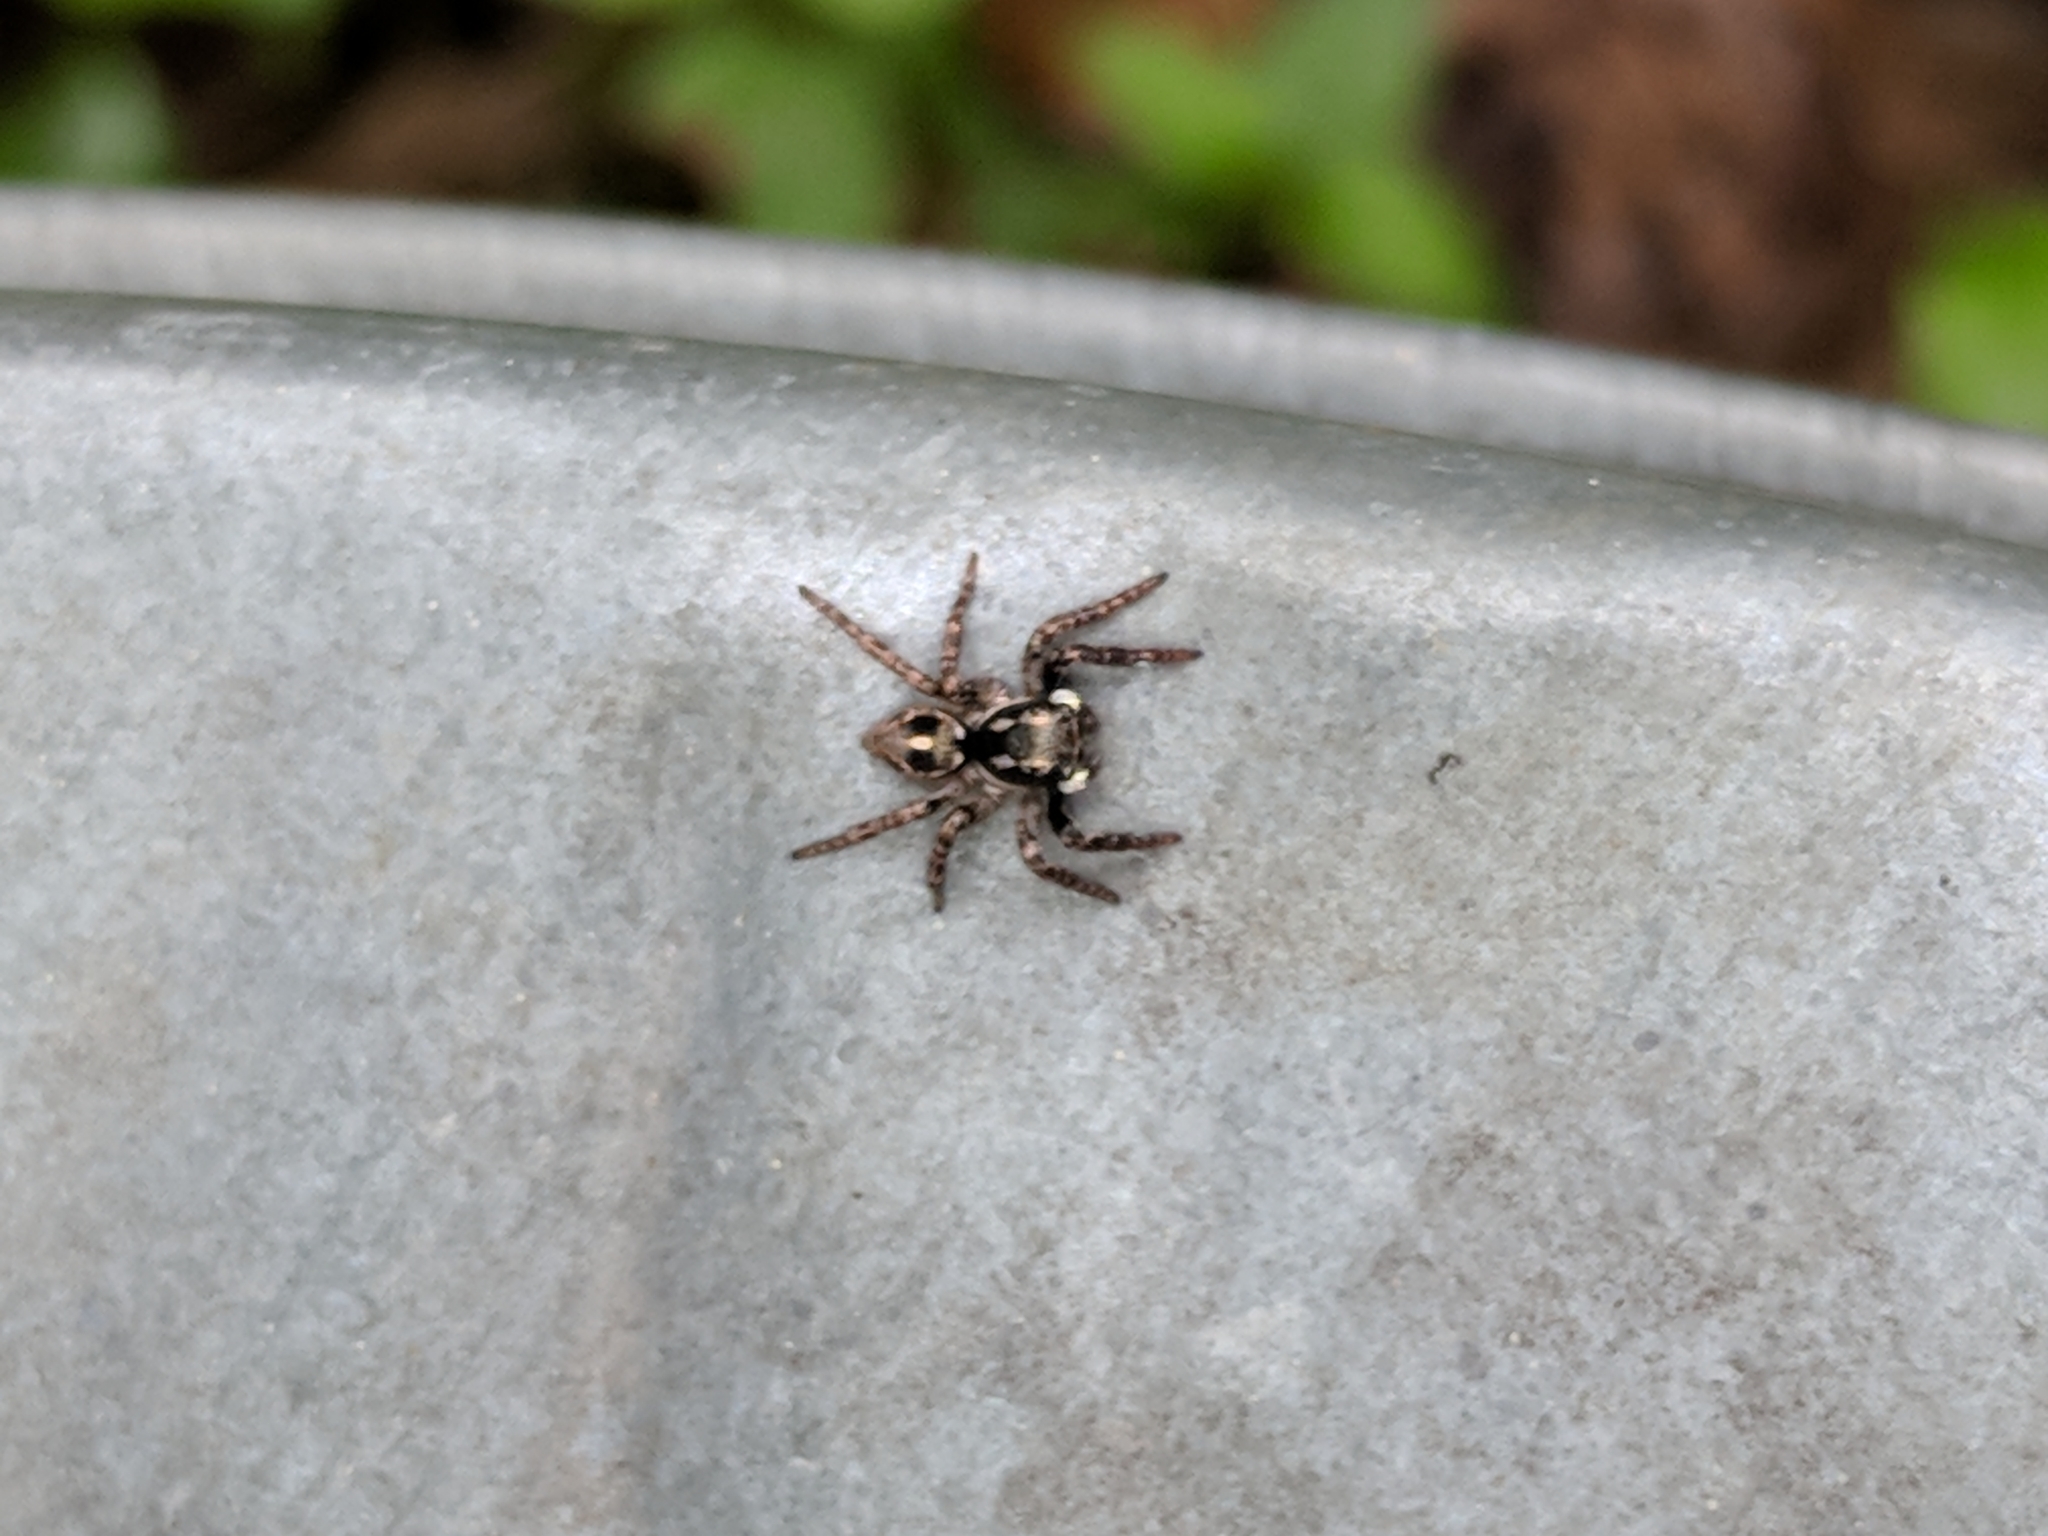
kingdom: Animalia
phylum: Arthropoda
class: Arachnida
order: Araneae
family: Salticidae
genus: Anasaitis
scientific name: Anasaitis canosa
